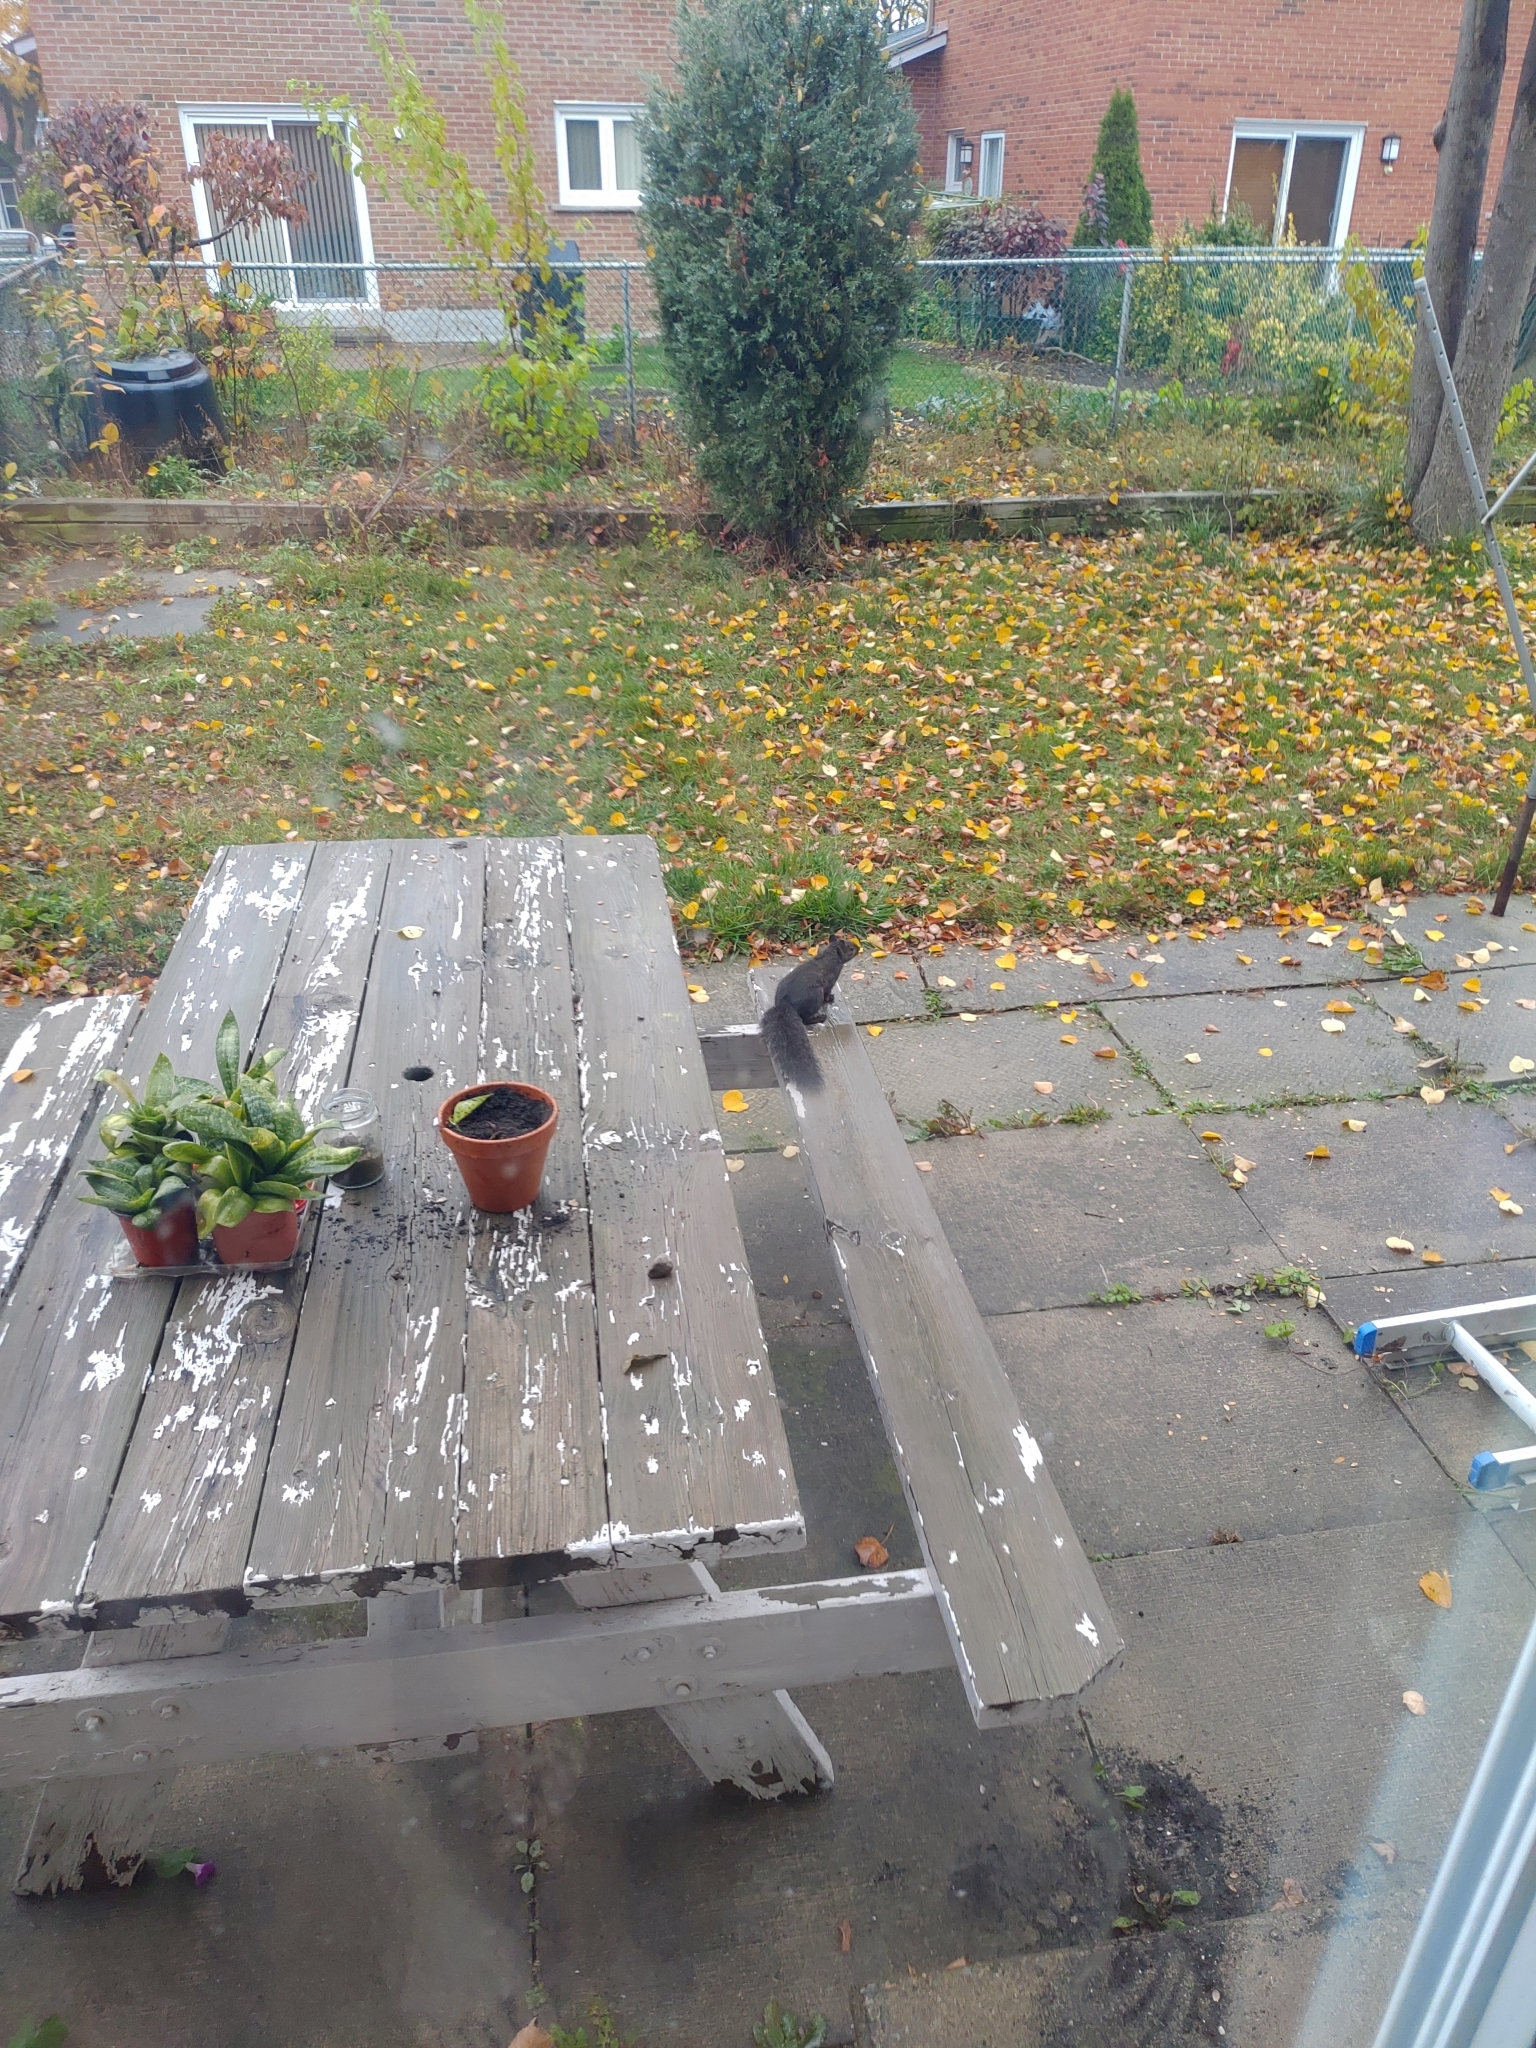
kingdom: Animalia
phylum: Chordata
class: Mammalia
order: Rodentia
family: Sciuridae
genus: Sciurus
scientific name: Sciurus carolinensis
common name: Eastern gray squirrel
